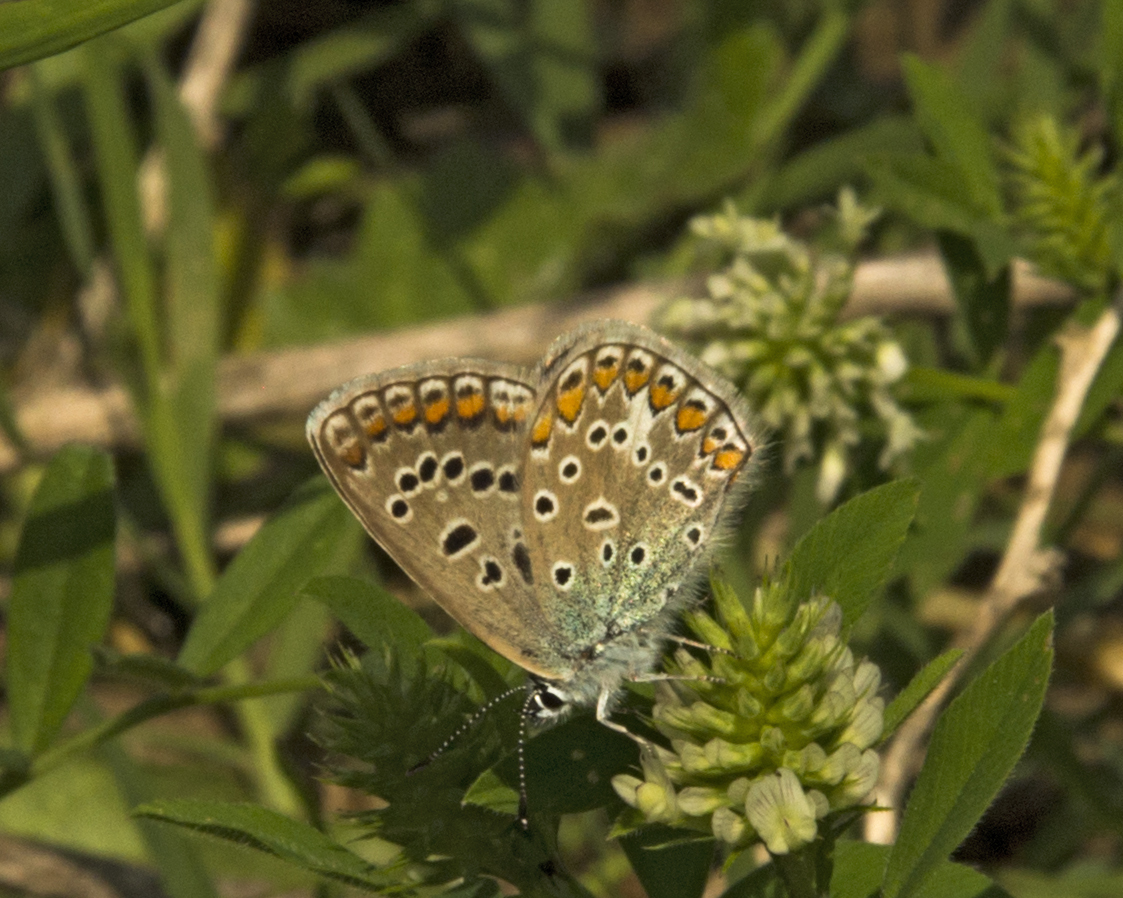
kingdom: Animalia
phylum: Arthropoda
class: Insecta
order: Lepidoptera
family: Lycaenidae
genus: Polyommatus
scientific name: Polyommatus icarus
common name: Common blue
